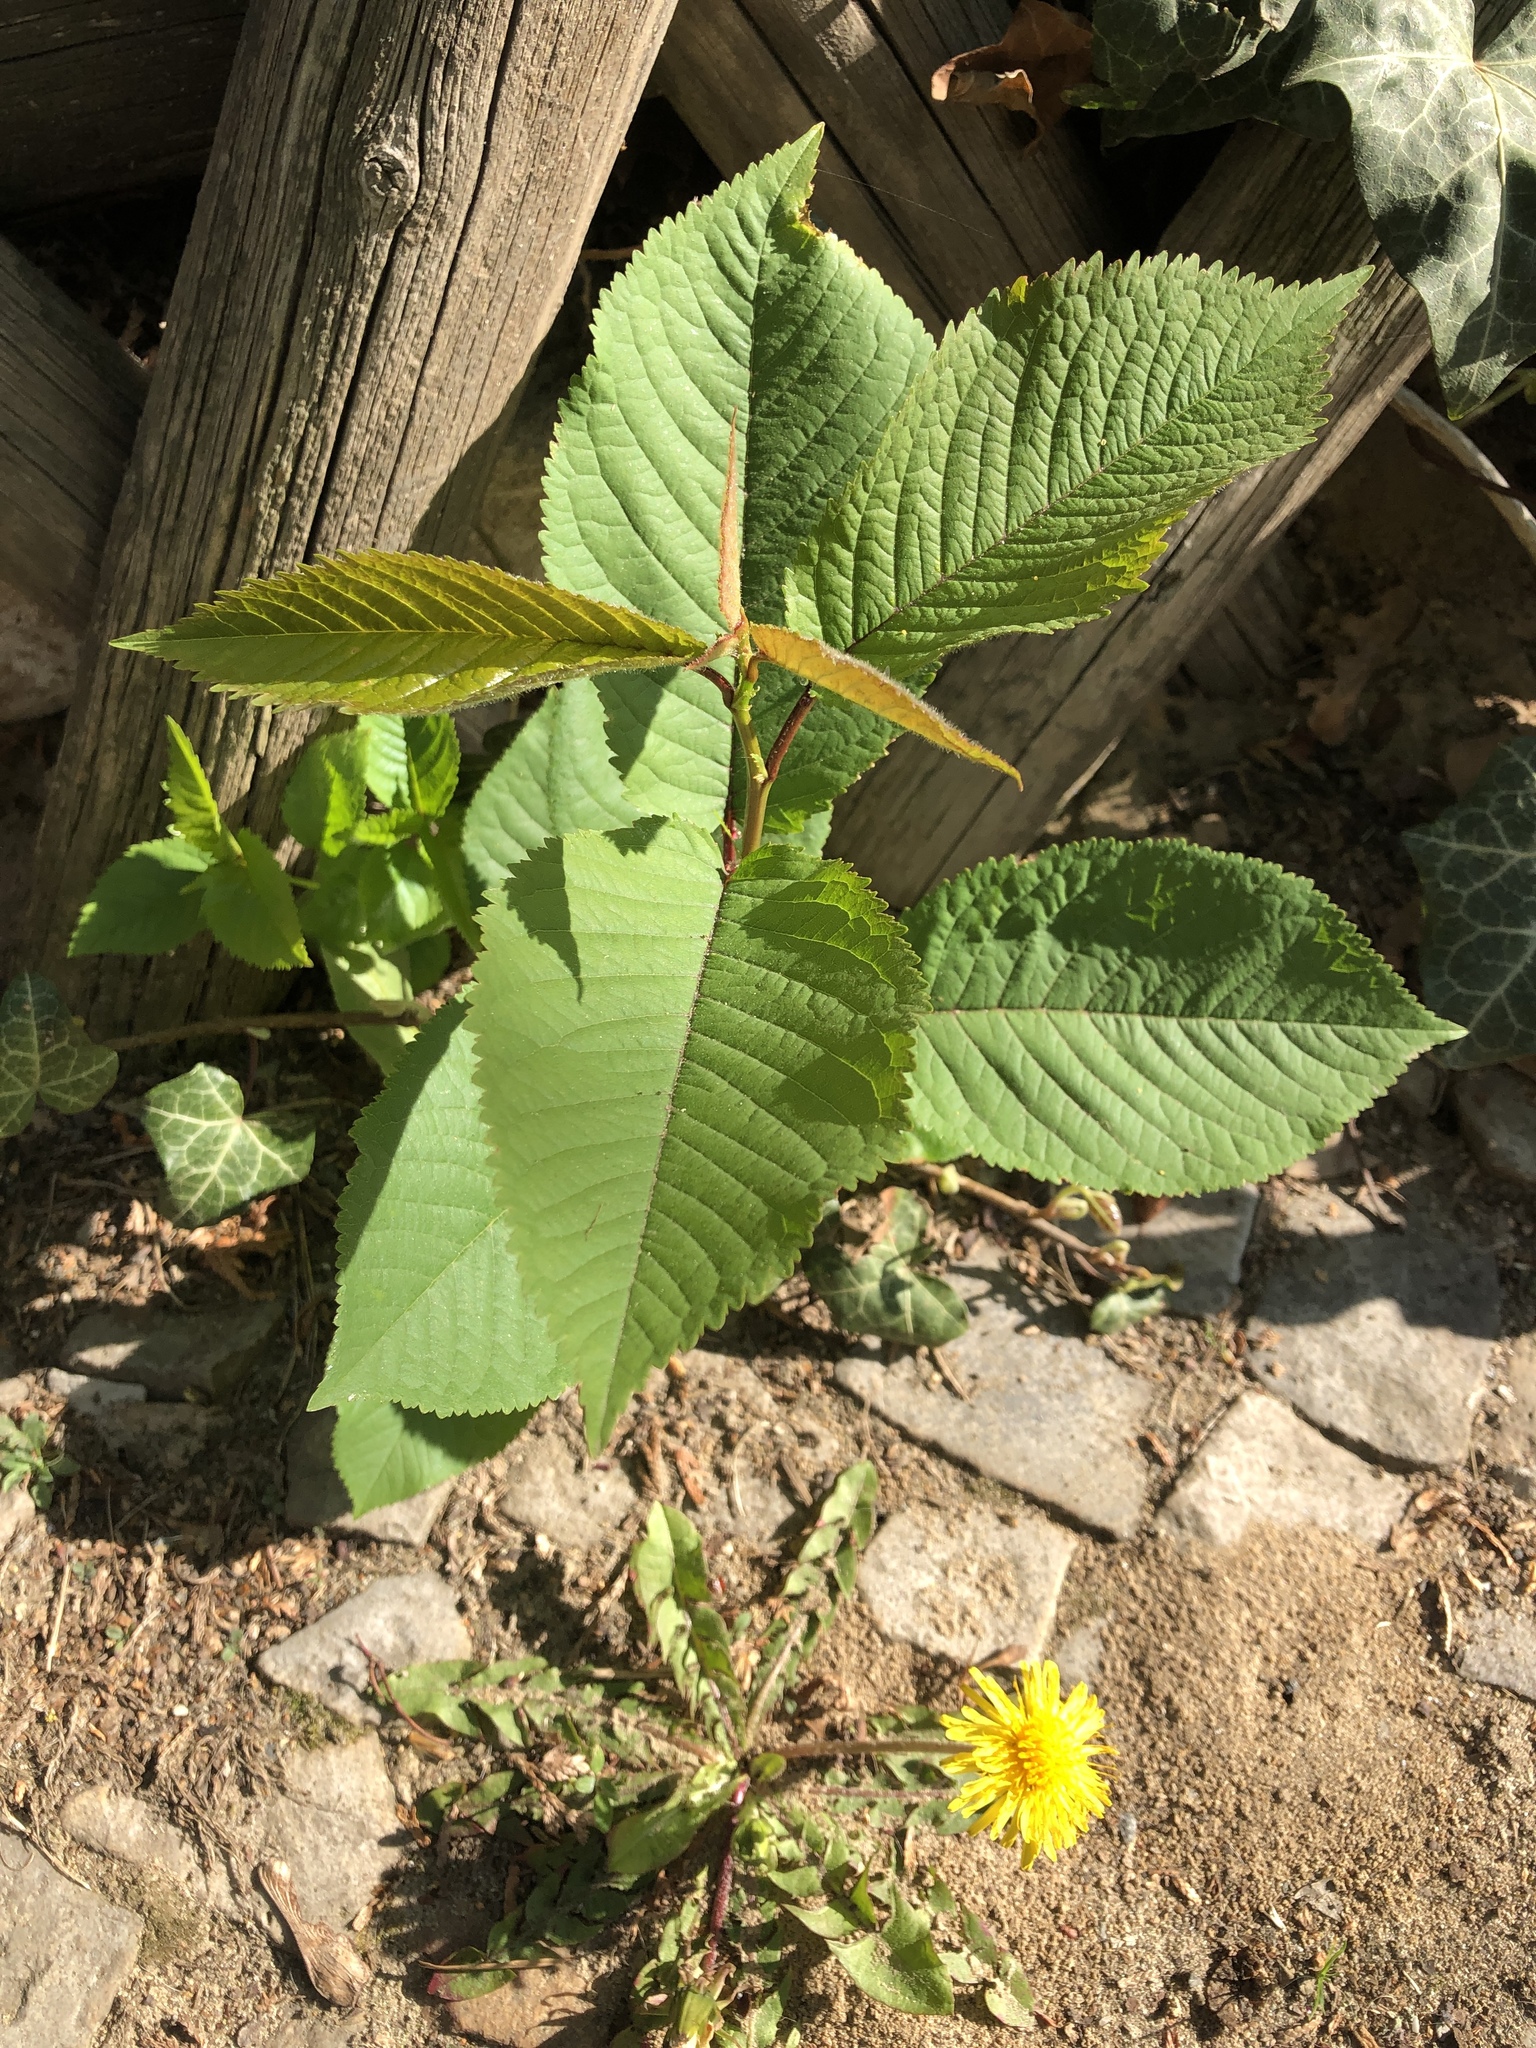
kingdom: Plantae
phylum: Tracheophyta
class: Magnoliopsida
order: Rosales
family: Rosaceae
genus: Prunus
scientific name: Prunus avium
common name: Sweet cherry
